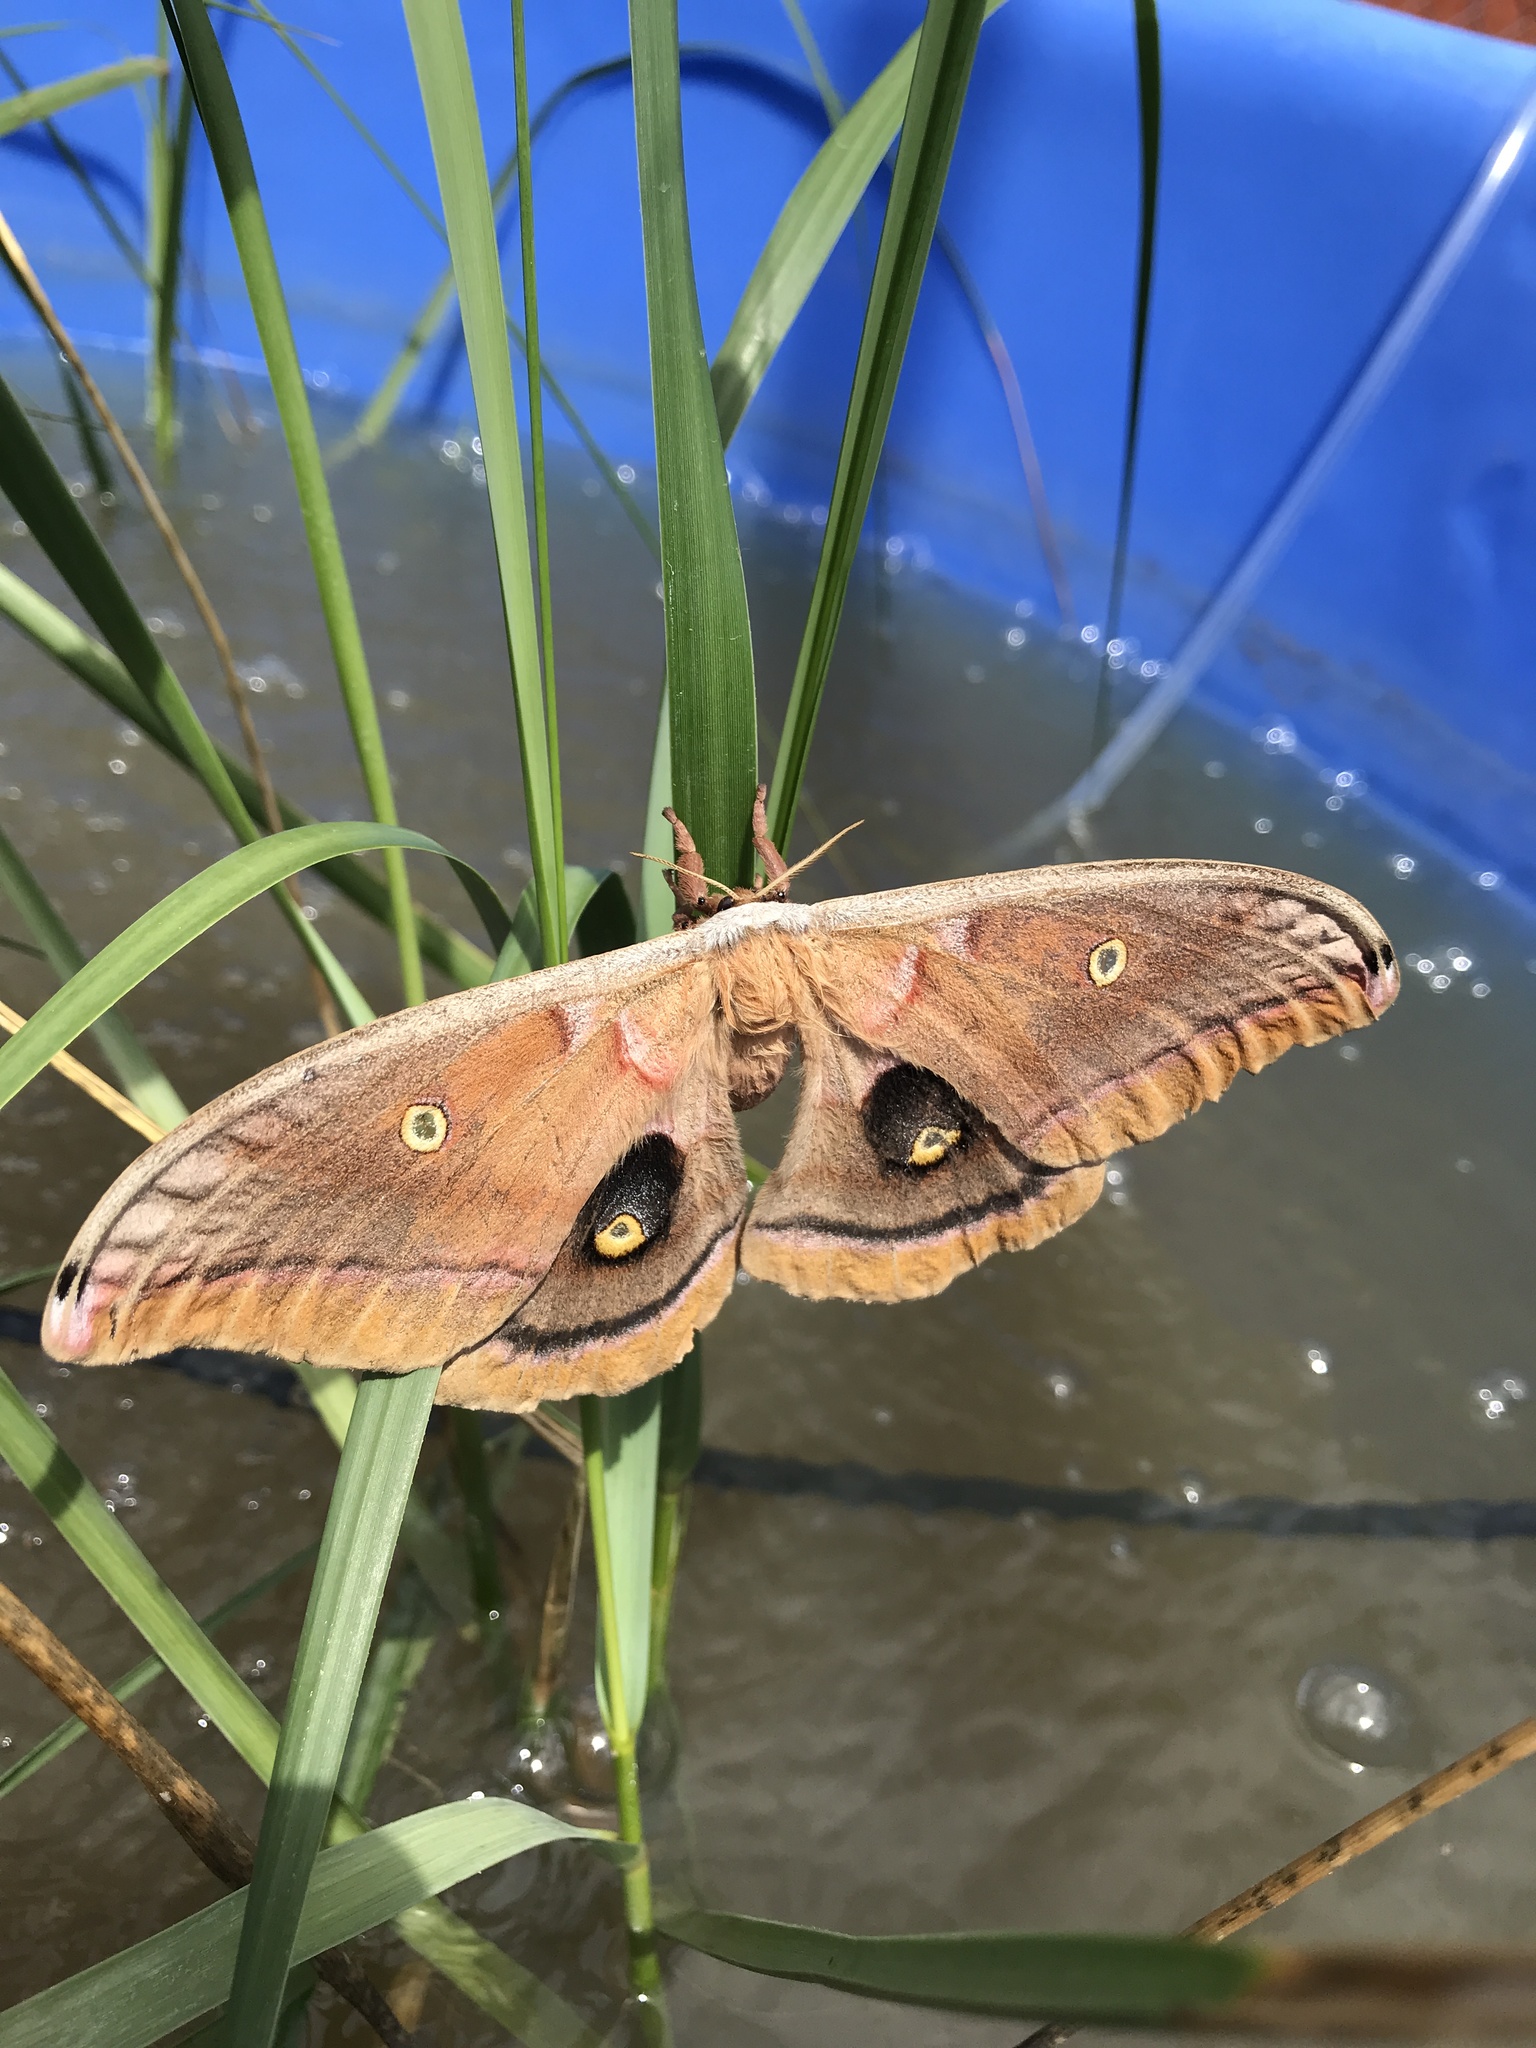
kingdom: Animalia
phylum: Arthropoda
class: Insecta
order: Lepidoptera
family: Saturniidae
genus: Antheraea
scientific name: Antheraea polyphemus
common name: Polyphemus moth
